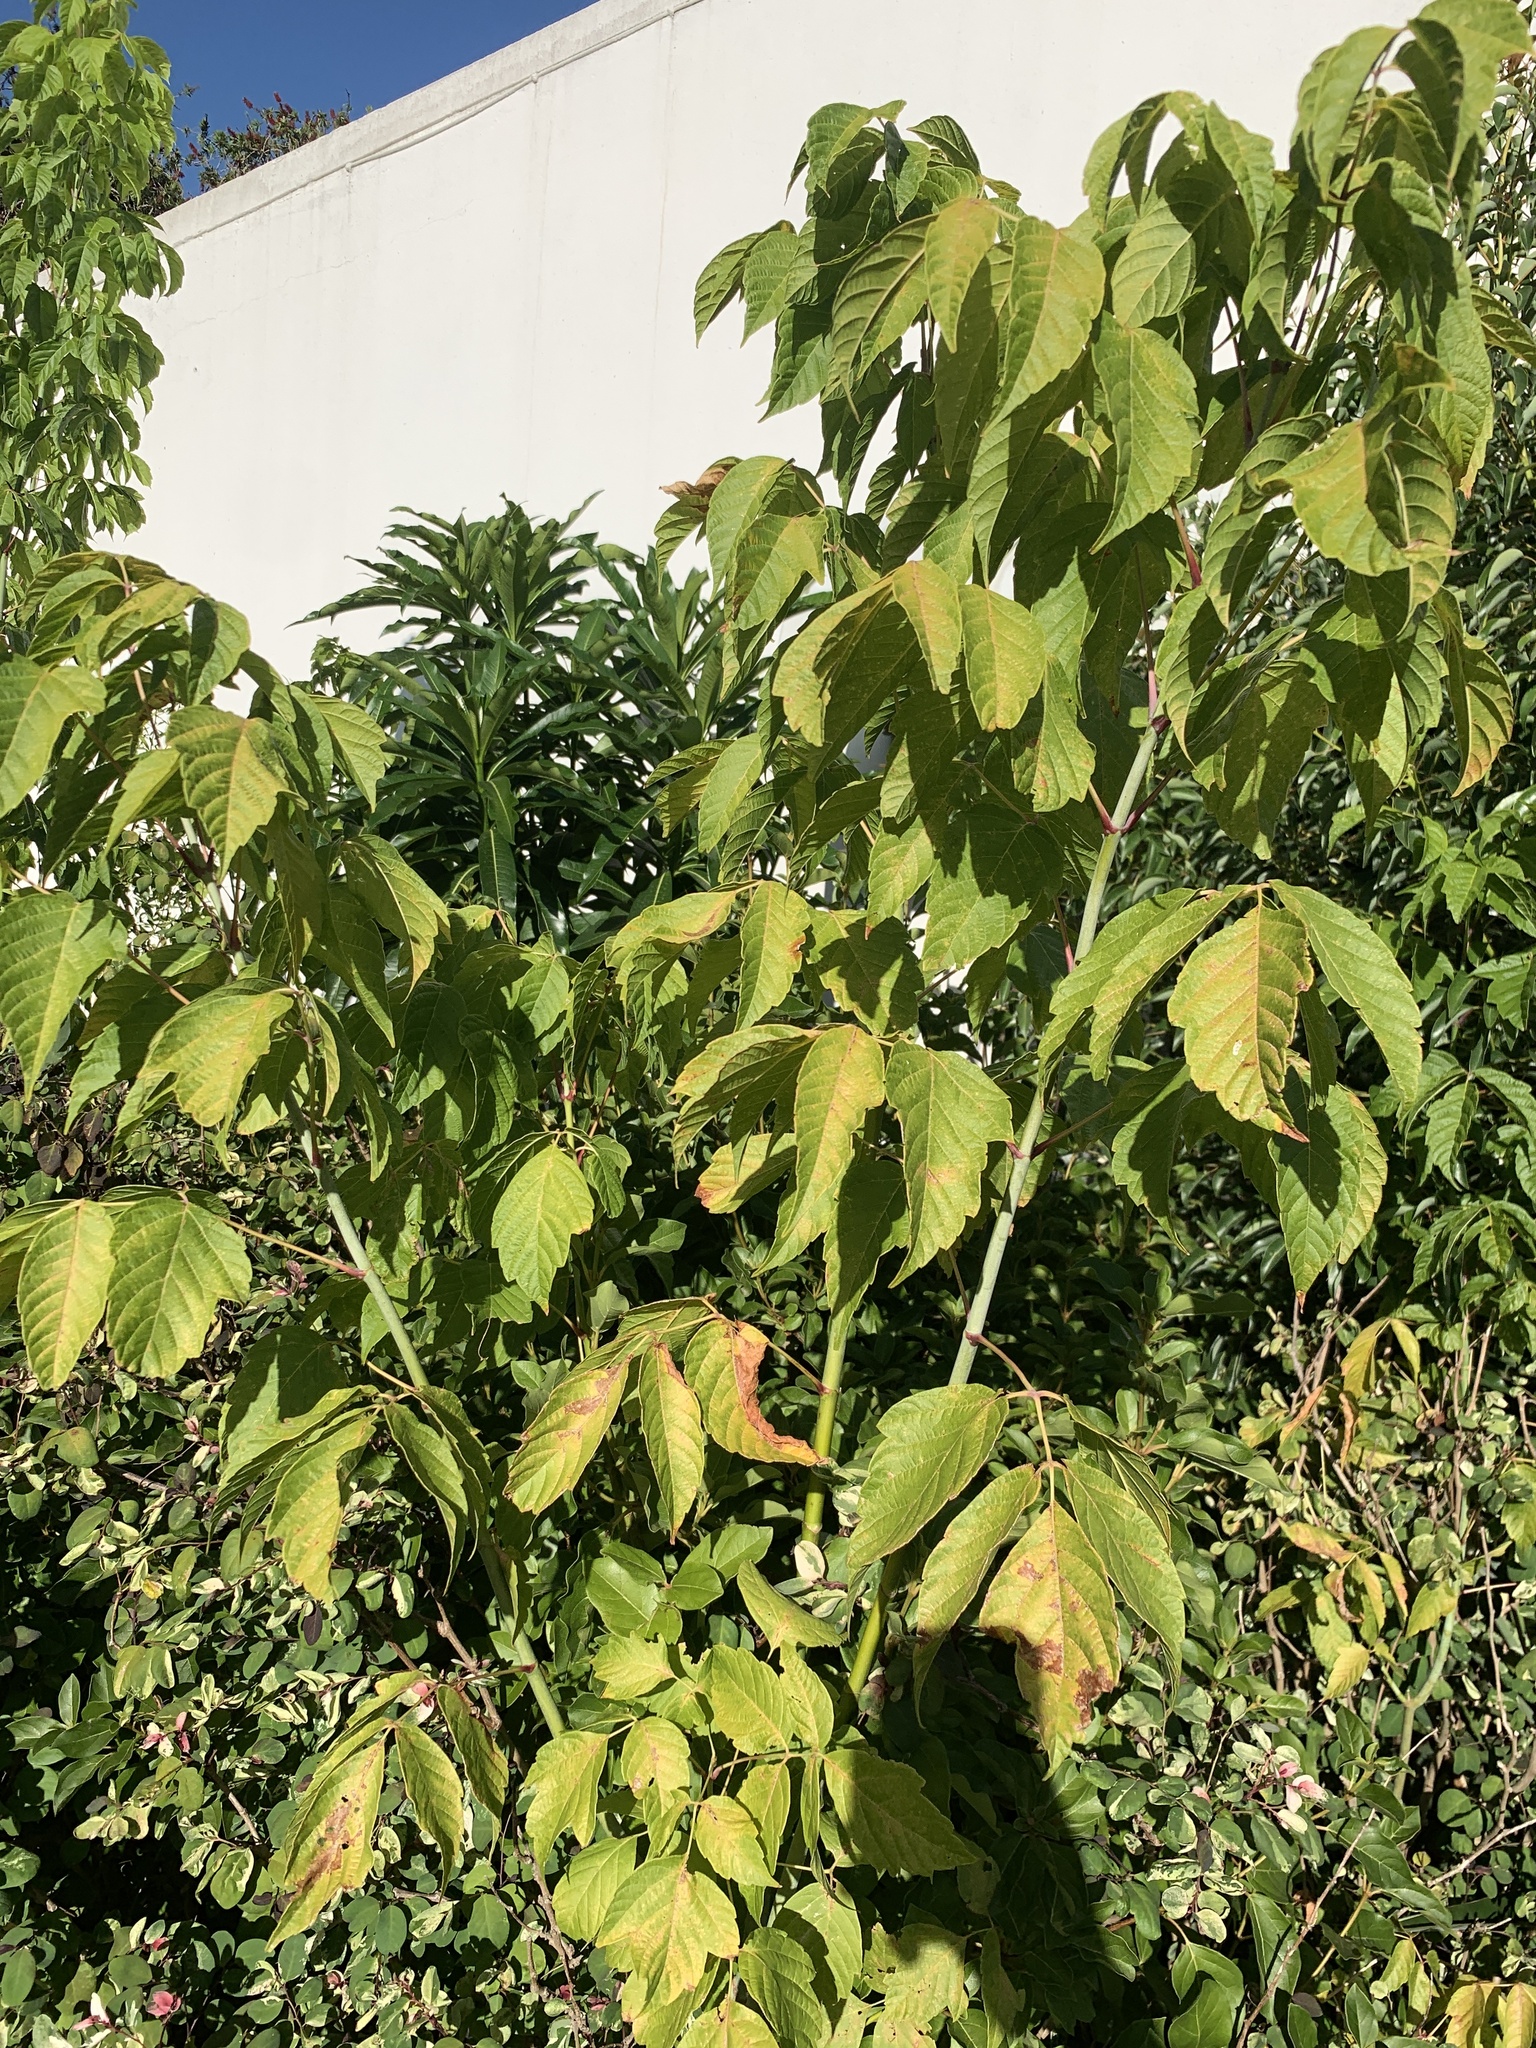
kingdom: Plantae
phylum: Tracheophyta
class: Magnoliopsida
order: Sapindales
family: Sapindaceae
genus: Acer
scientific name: Acer negundo
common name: Ashleaf maple
